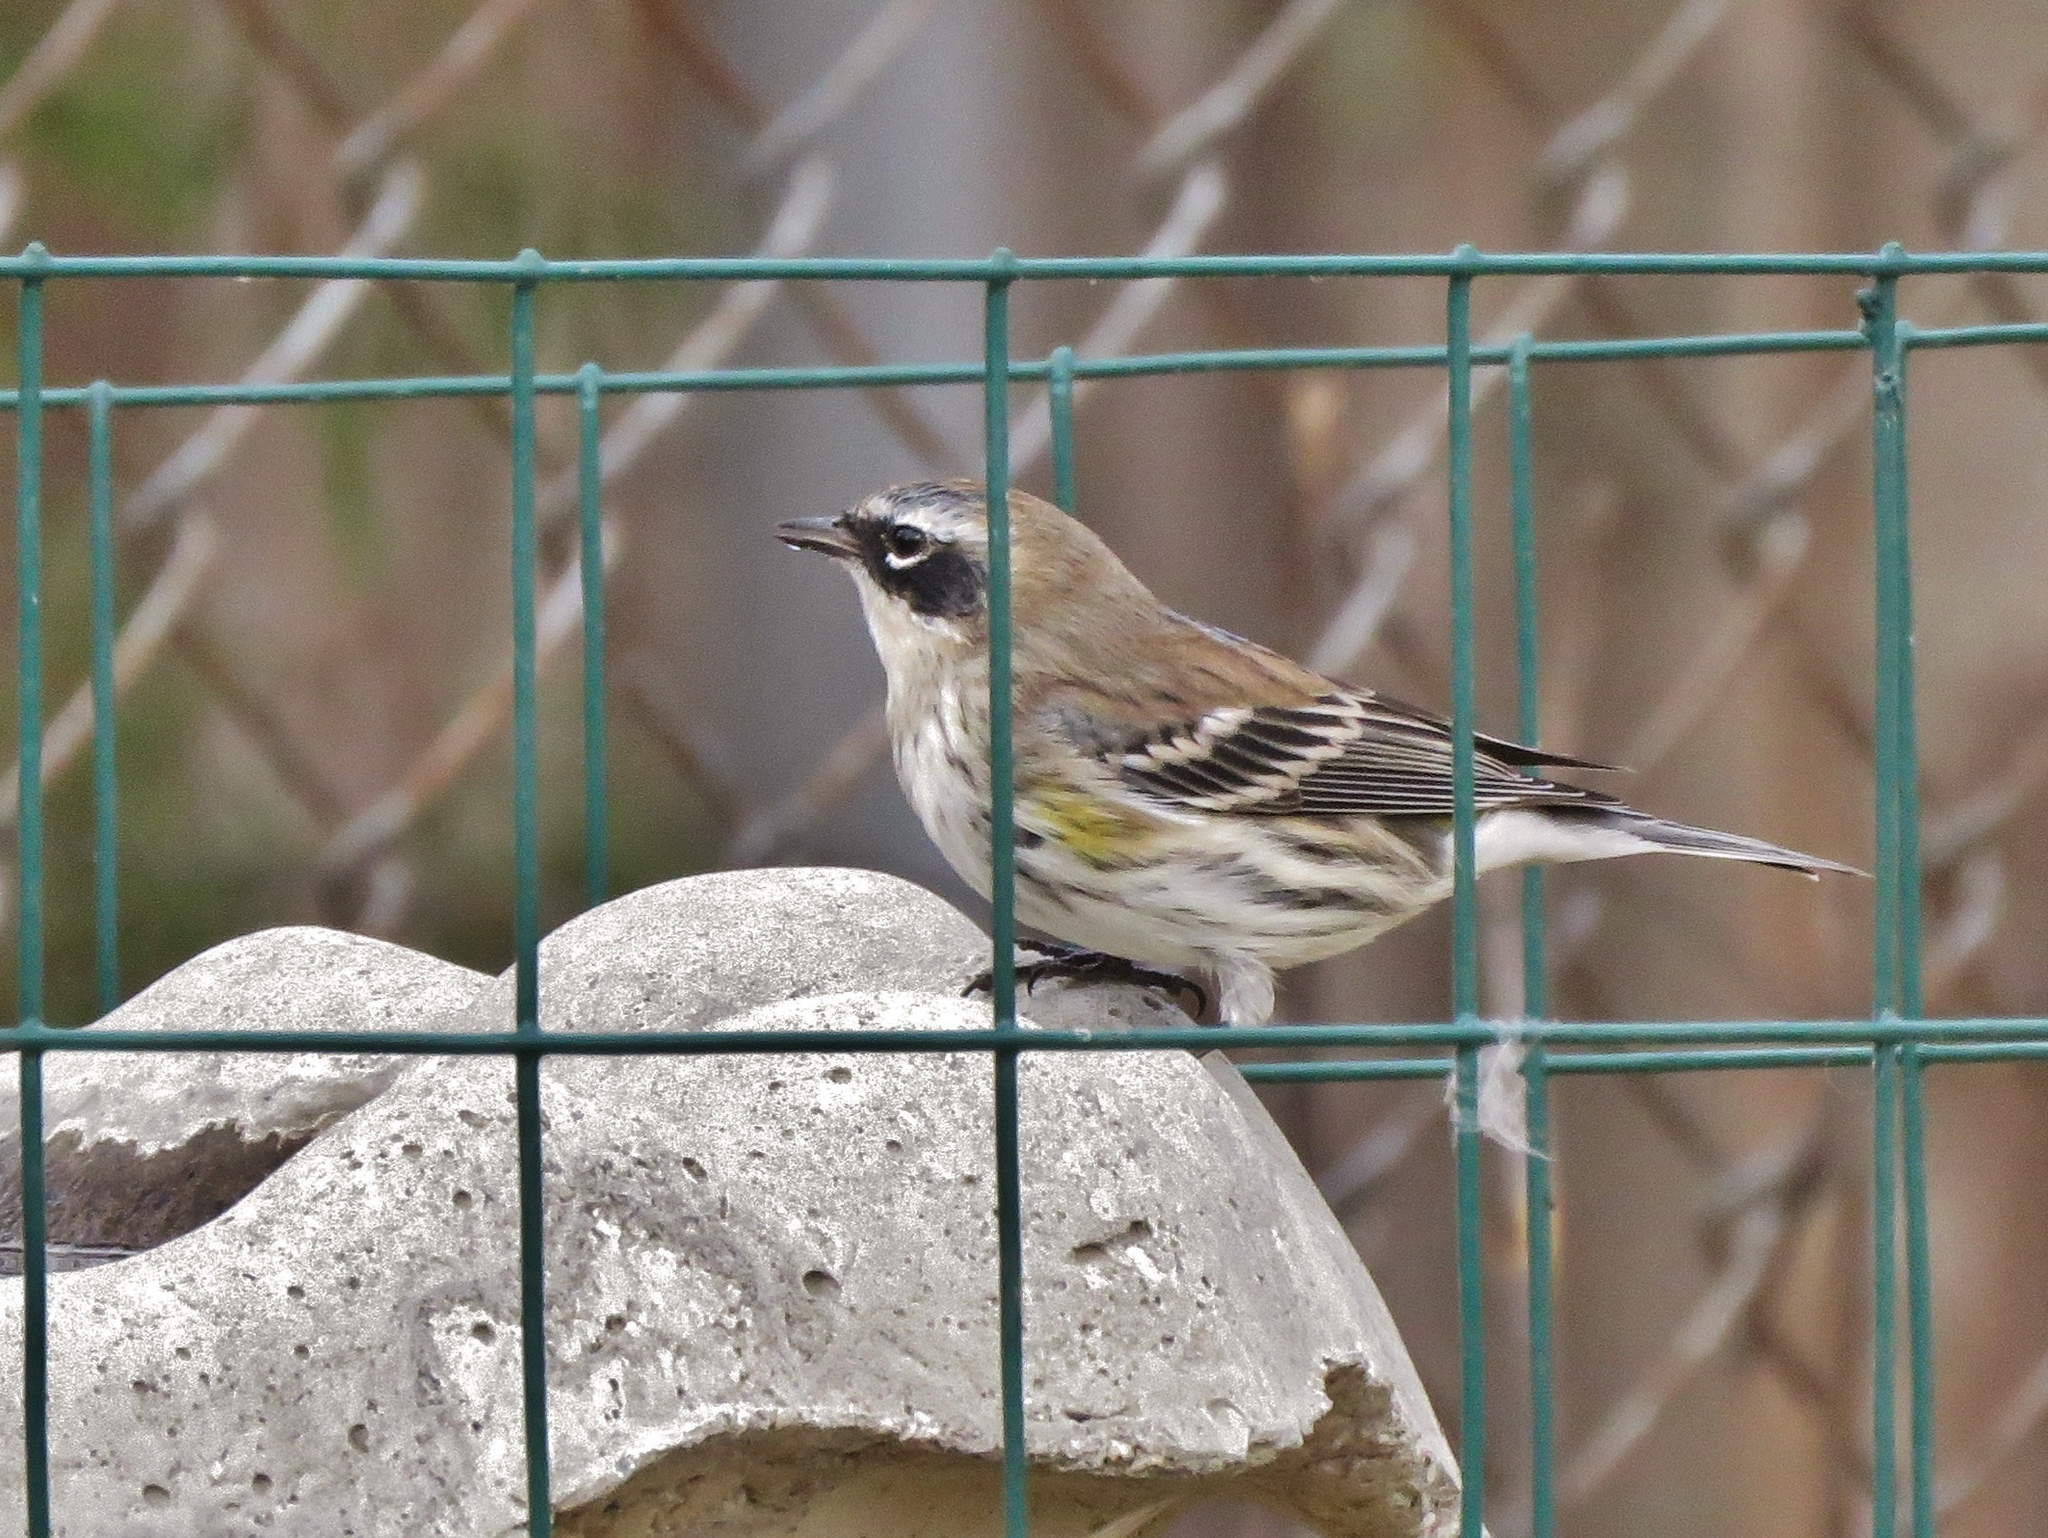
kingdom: Animalia
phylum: Chordata
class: Aves
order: Passeriformes
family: Parulidae
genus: Setophaga
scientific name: Setophaga coronata
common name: Myrtle warbler
